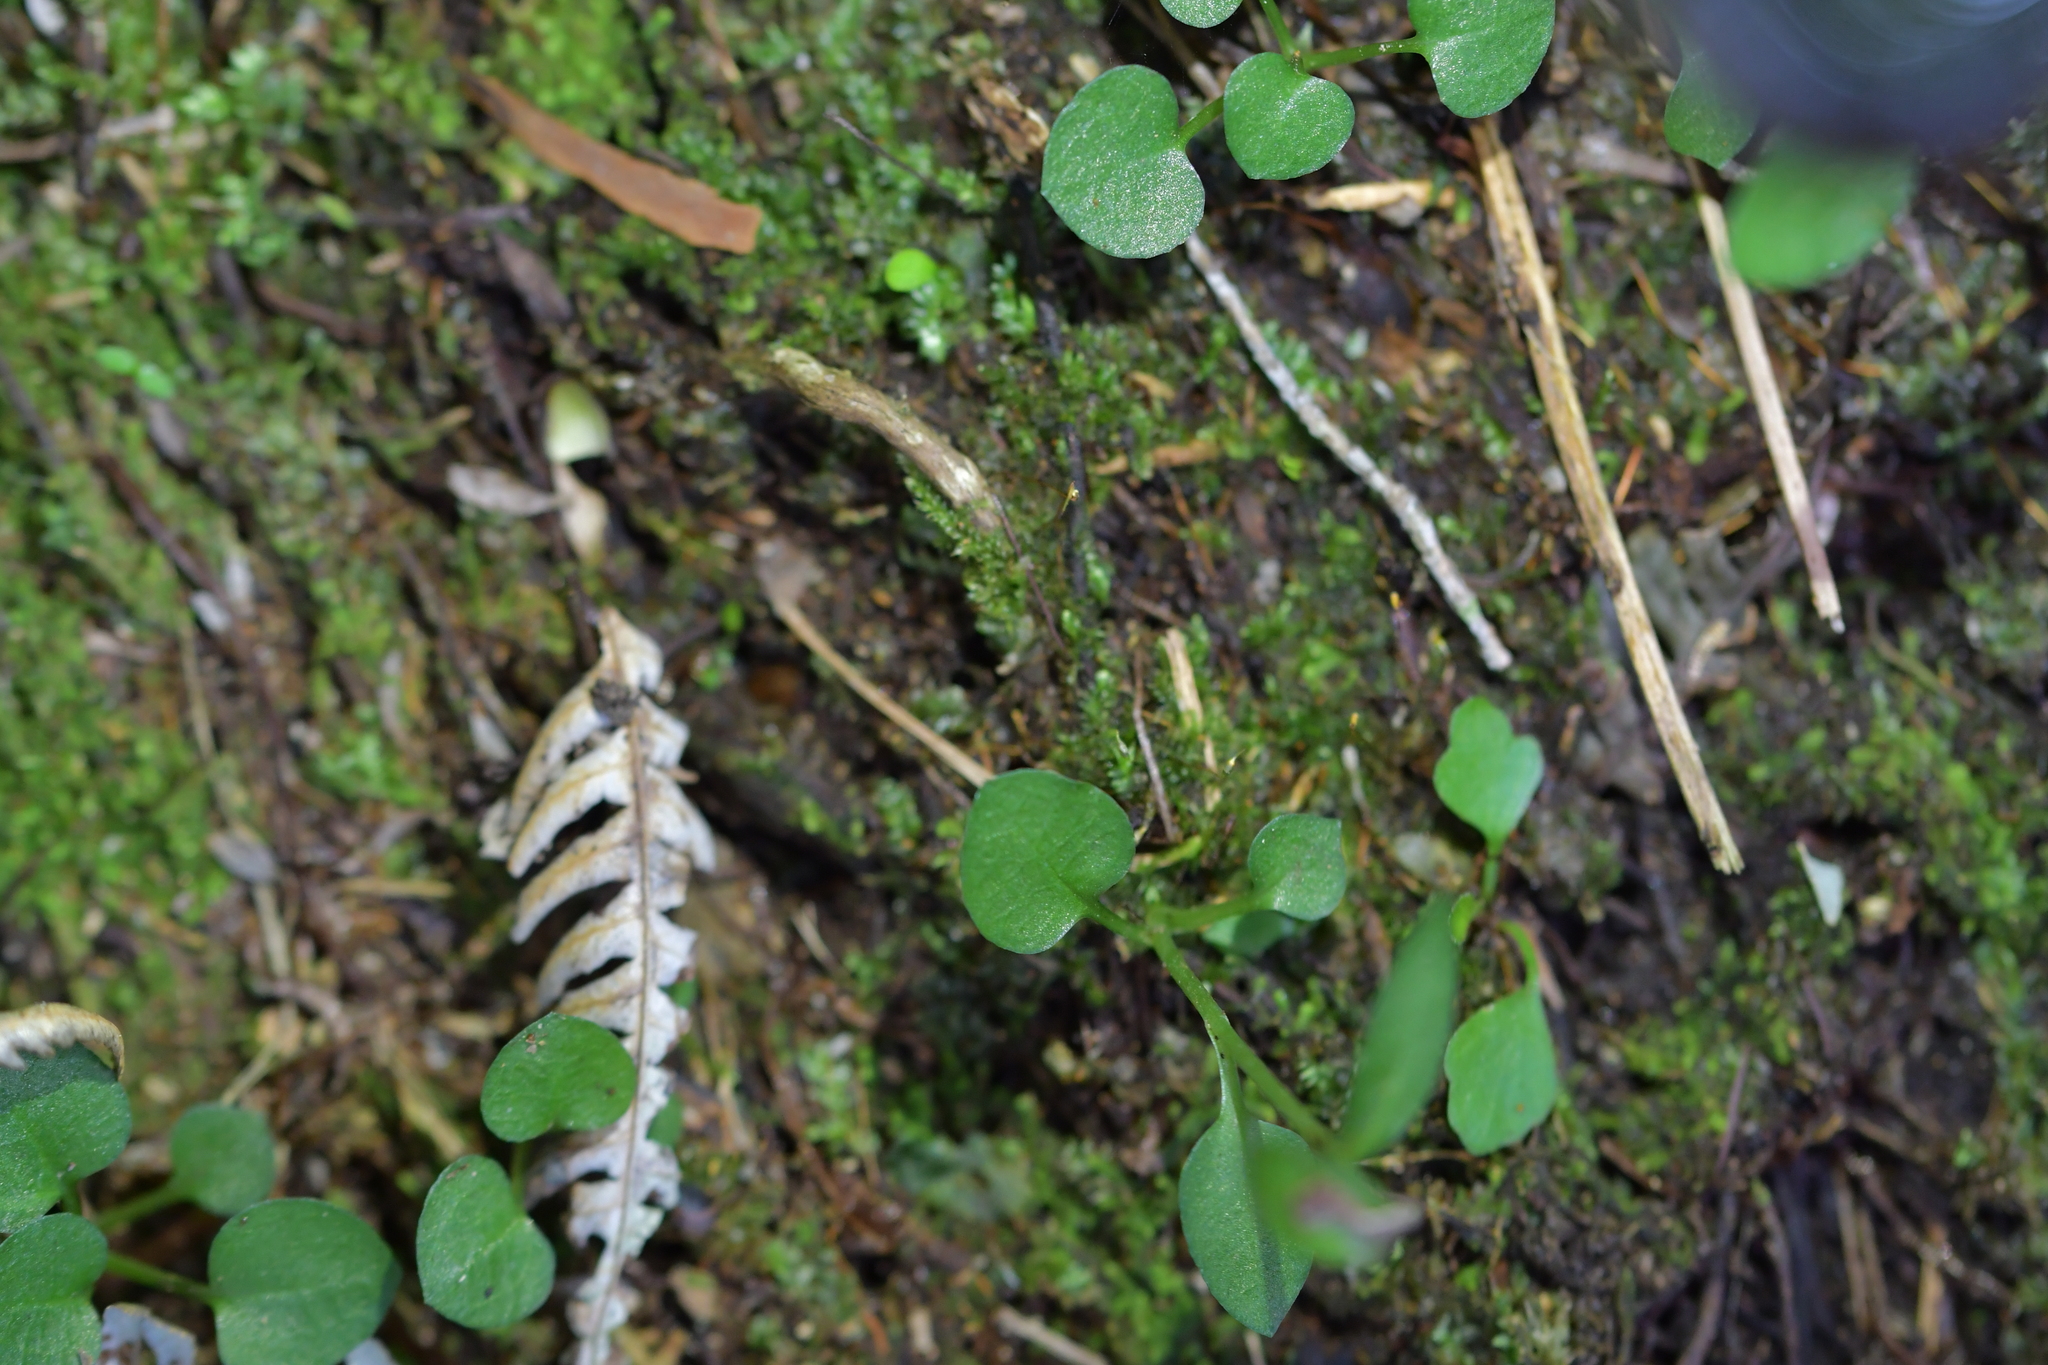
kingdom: Plantae
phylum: Tracheophyta
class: Liliopsida
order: Asparagales
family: Orchidaceae
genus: Pterostylis
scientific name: Pterostylis alobula
